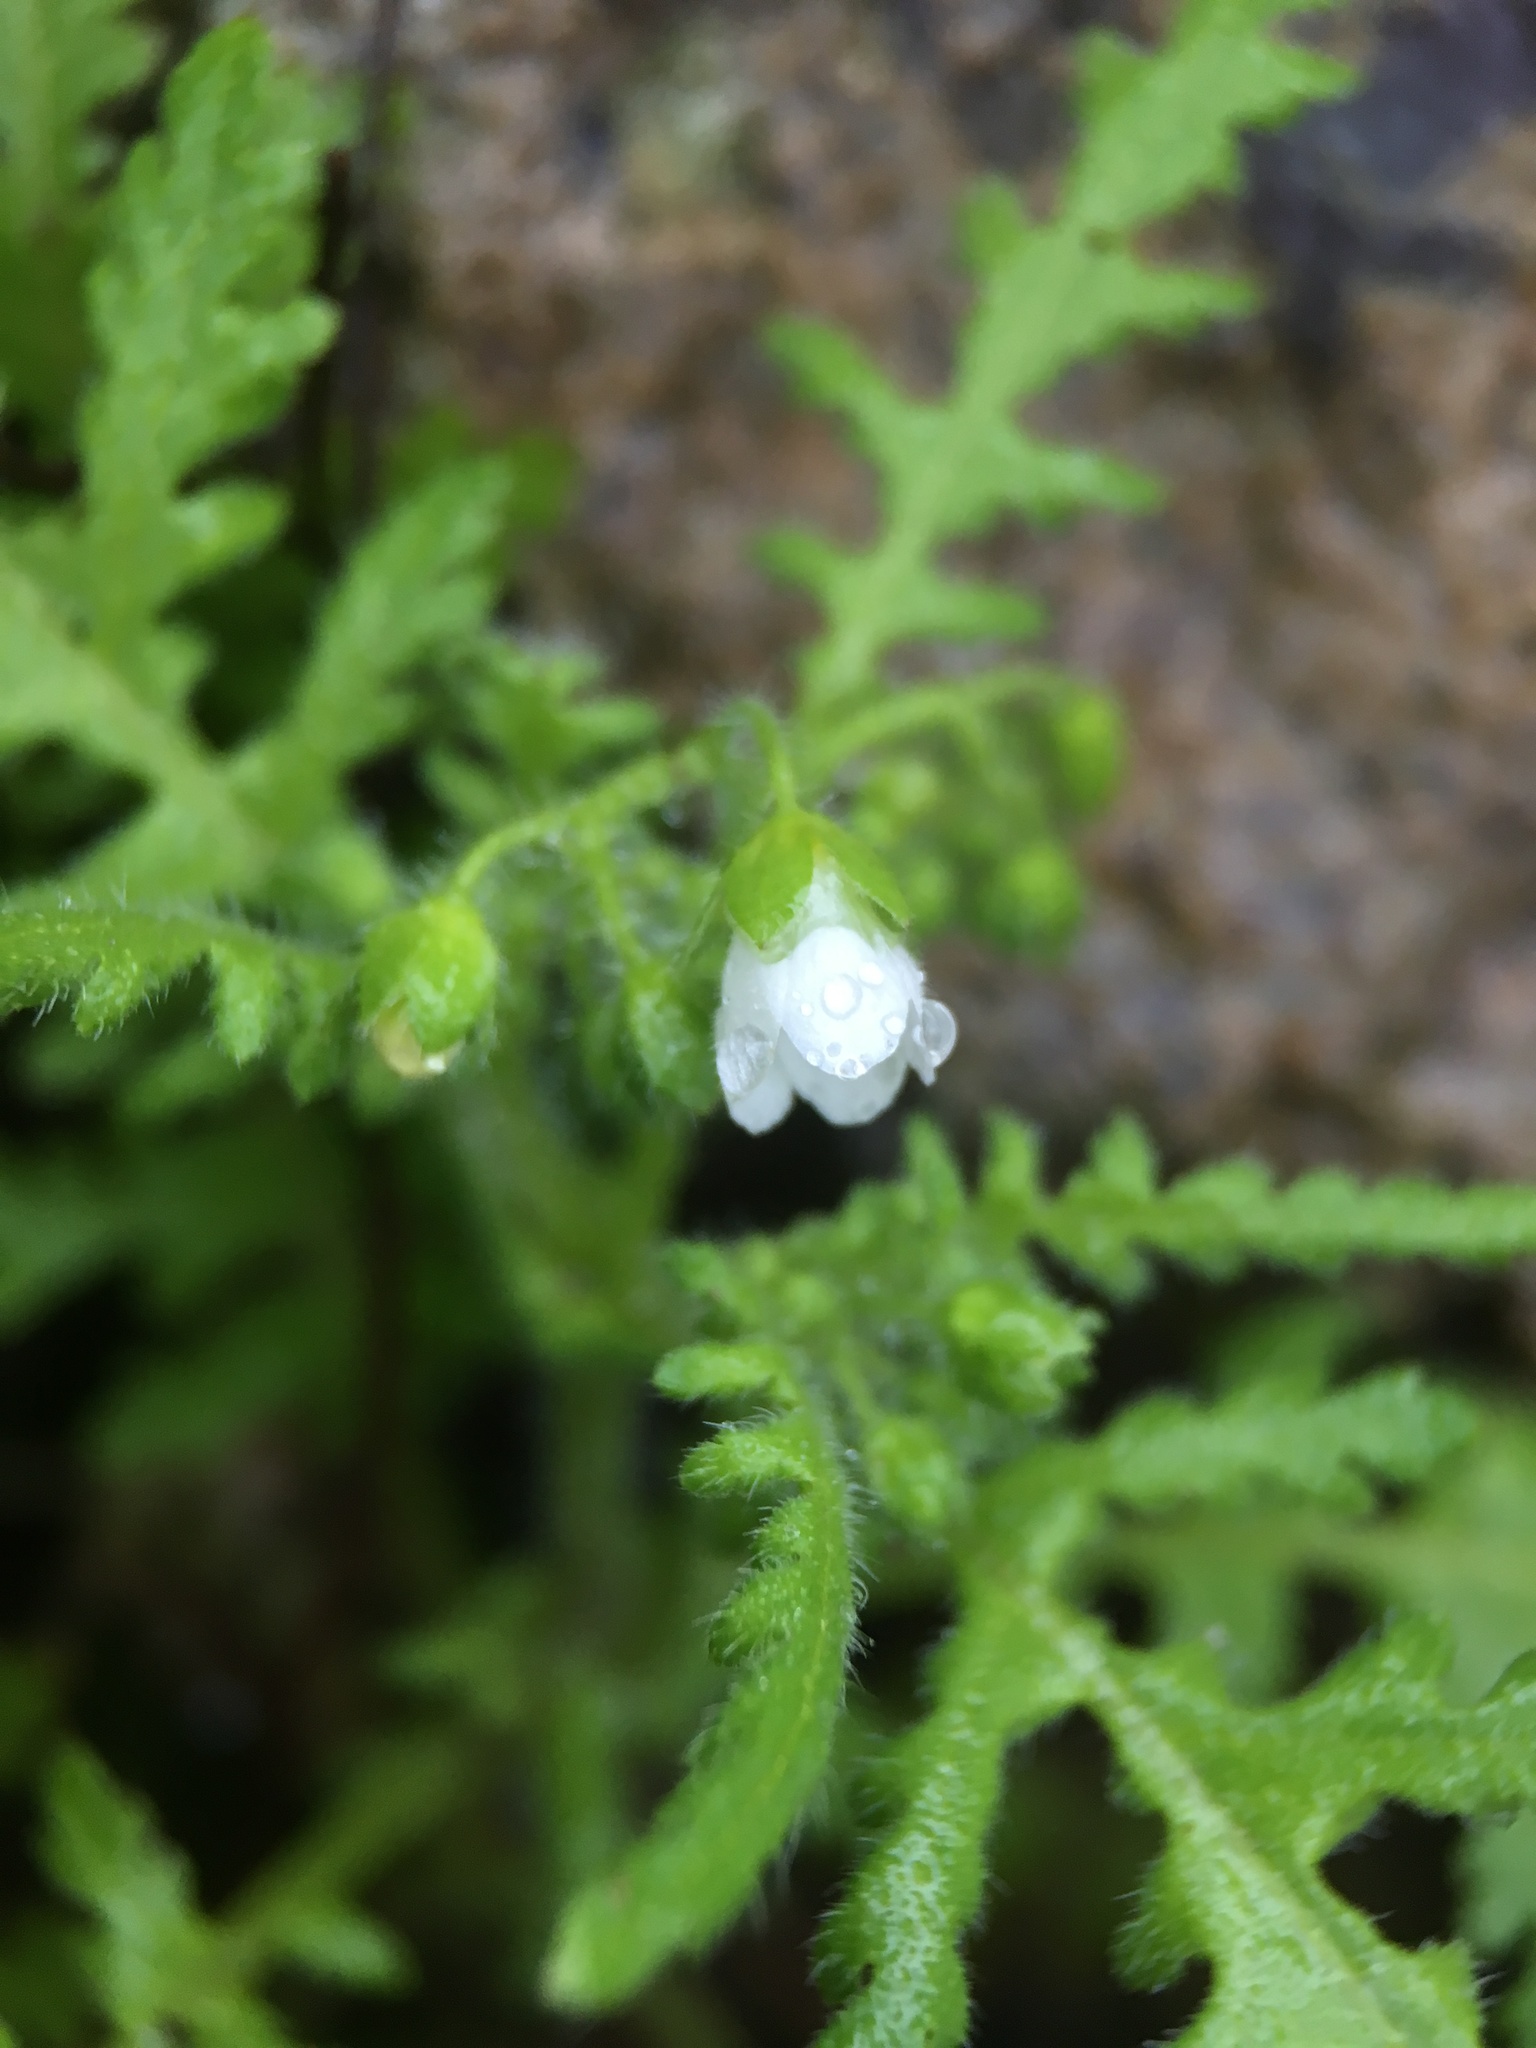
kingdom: Plantae
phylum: Tracheophyta
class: Magnoliopsida
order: Boraginales
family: Hydrophyllaceae
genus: Eucrypta
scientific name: Eucrypta chrysanthemifolia
